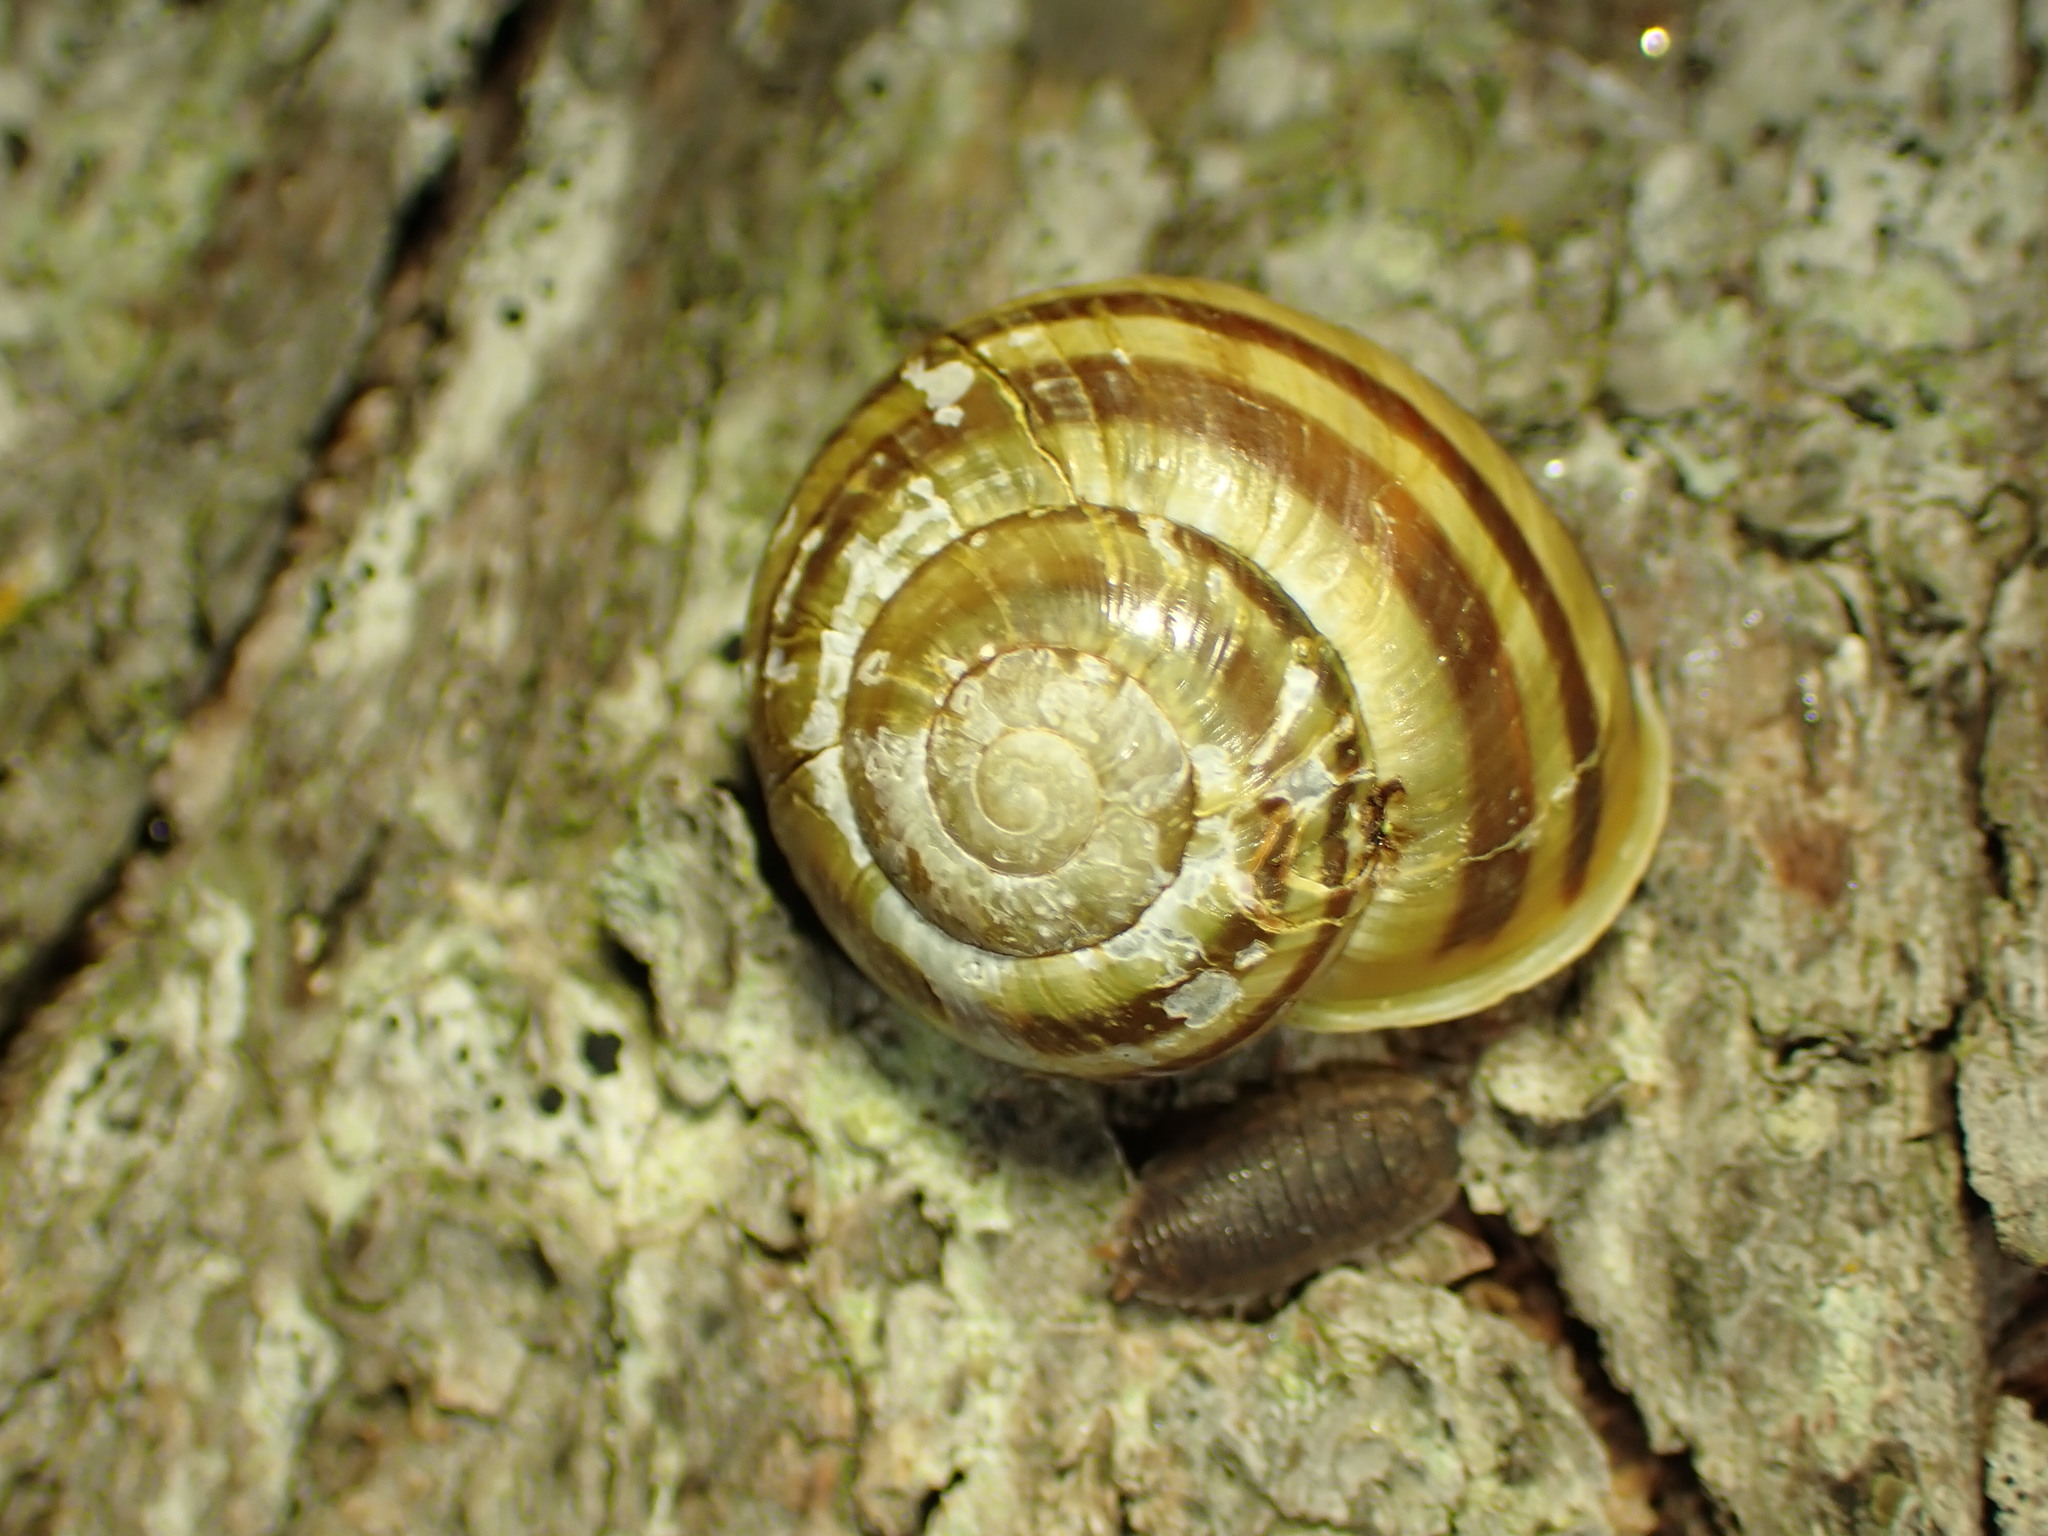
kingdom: Animalia
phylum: Mollusca
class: Gastropoda
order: Stylommatophora
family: Helicidae
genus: Cepaea
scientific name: Cepaea hortensis
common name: White-lip gardensnail
